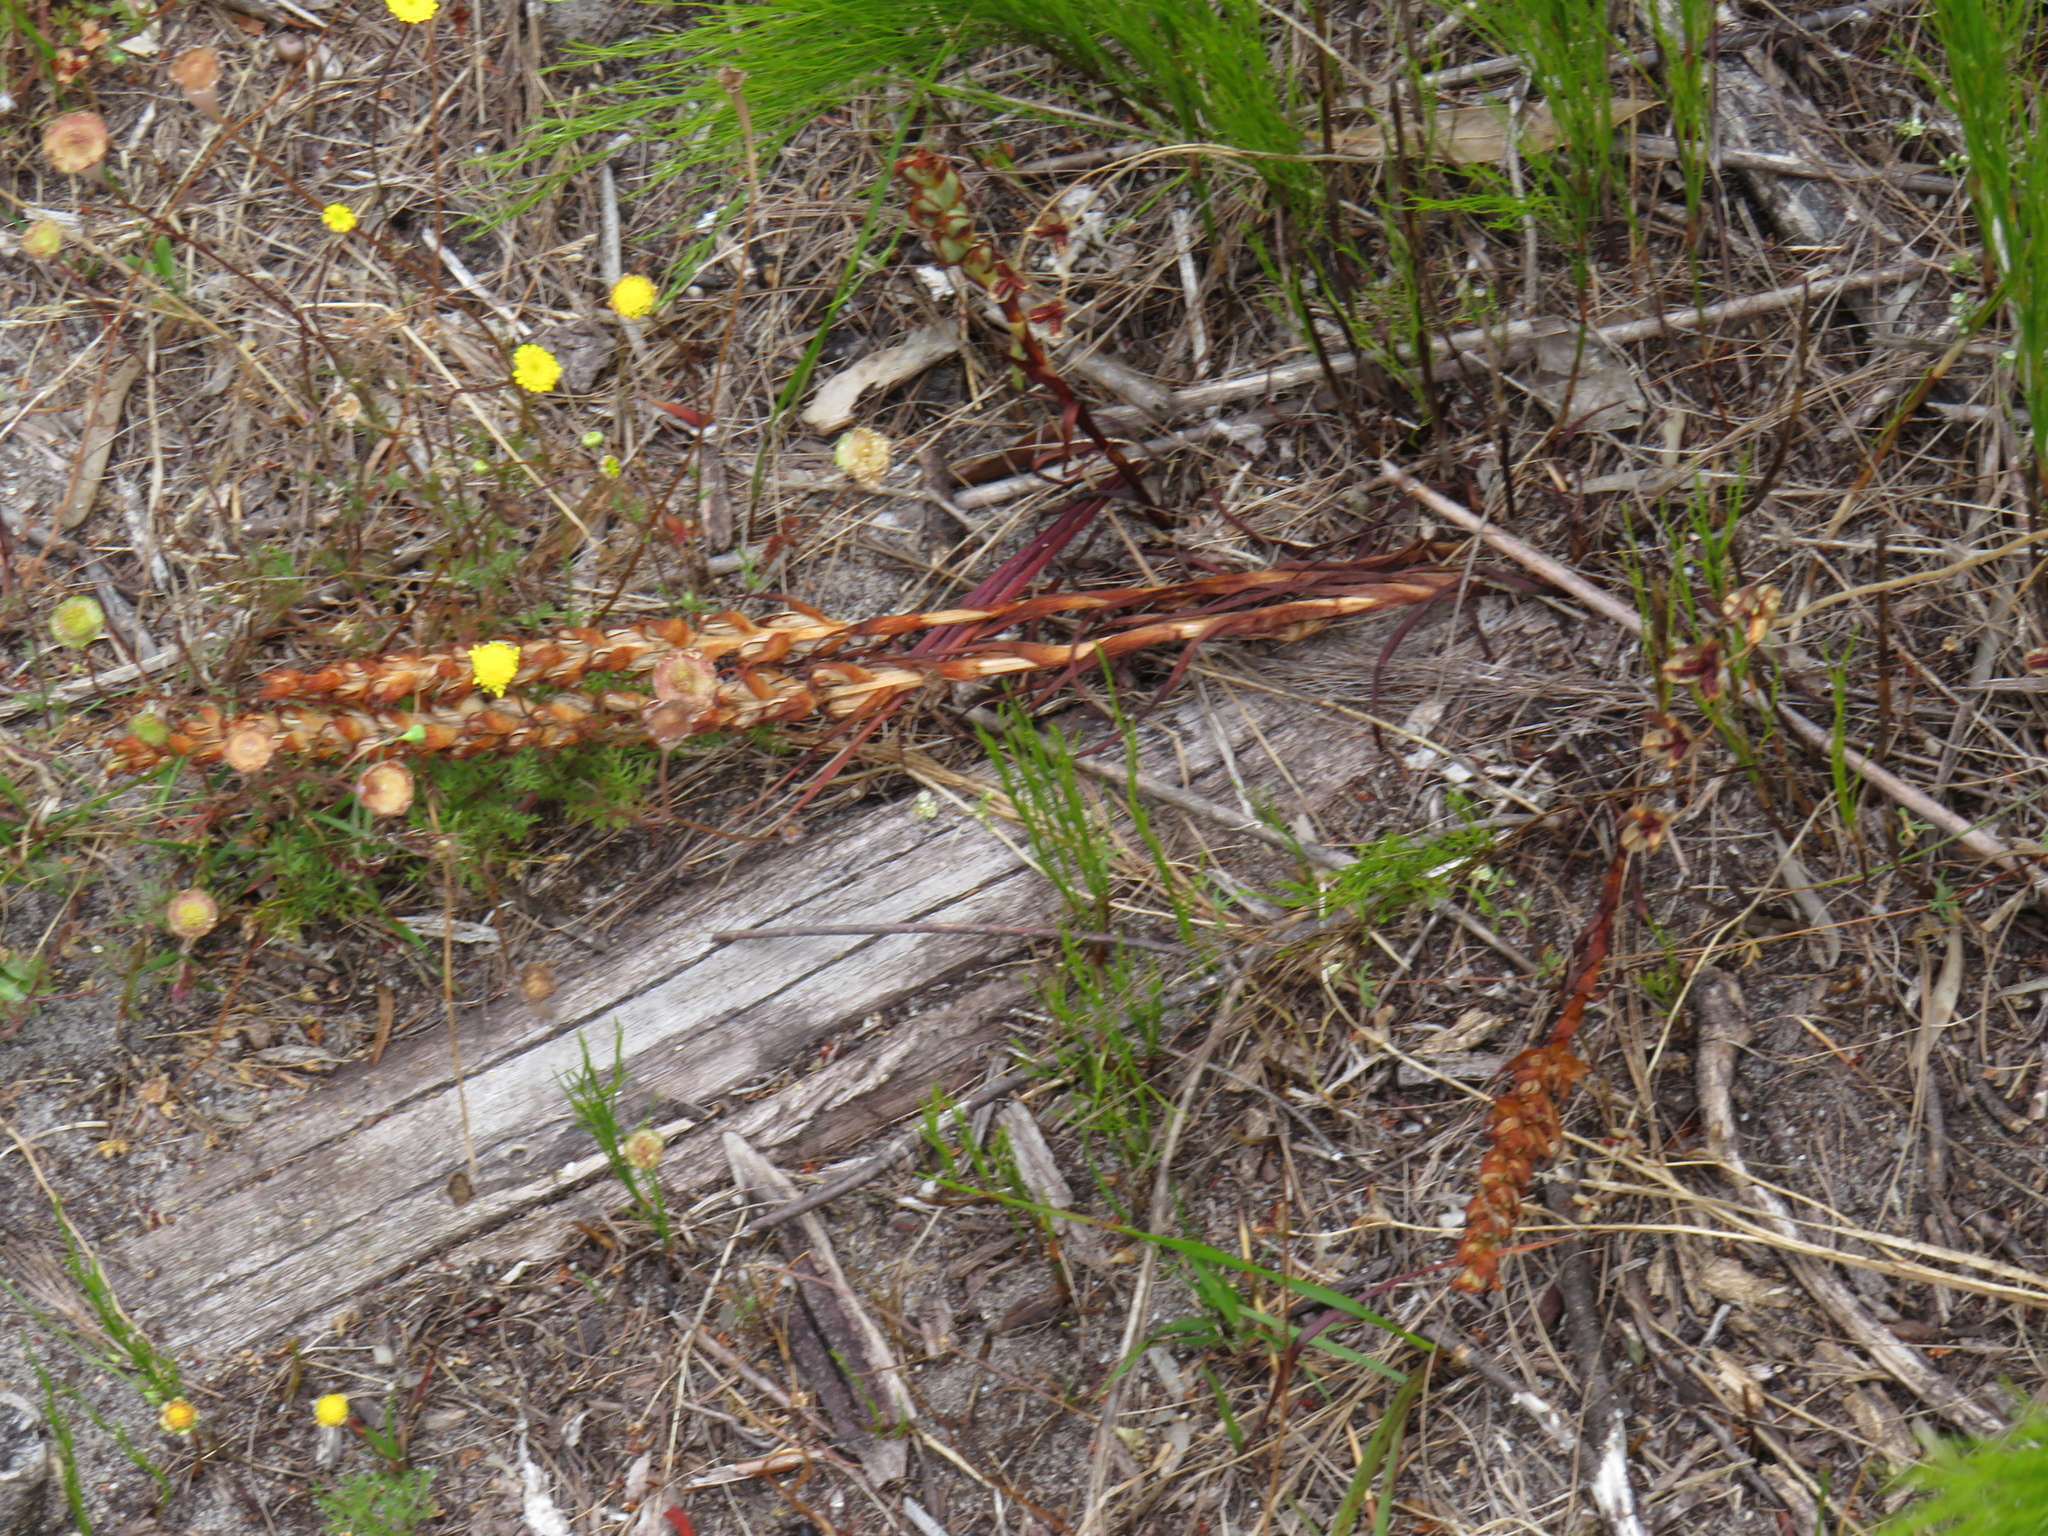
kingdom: Plantae
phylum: Tracheophyta
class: Liliopsida
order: Asparagales
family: Orchidaceae
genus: Disa
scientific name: Disa bracteata
